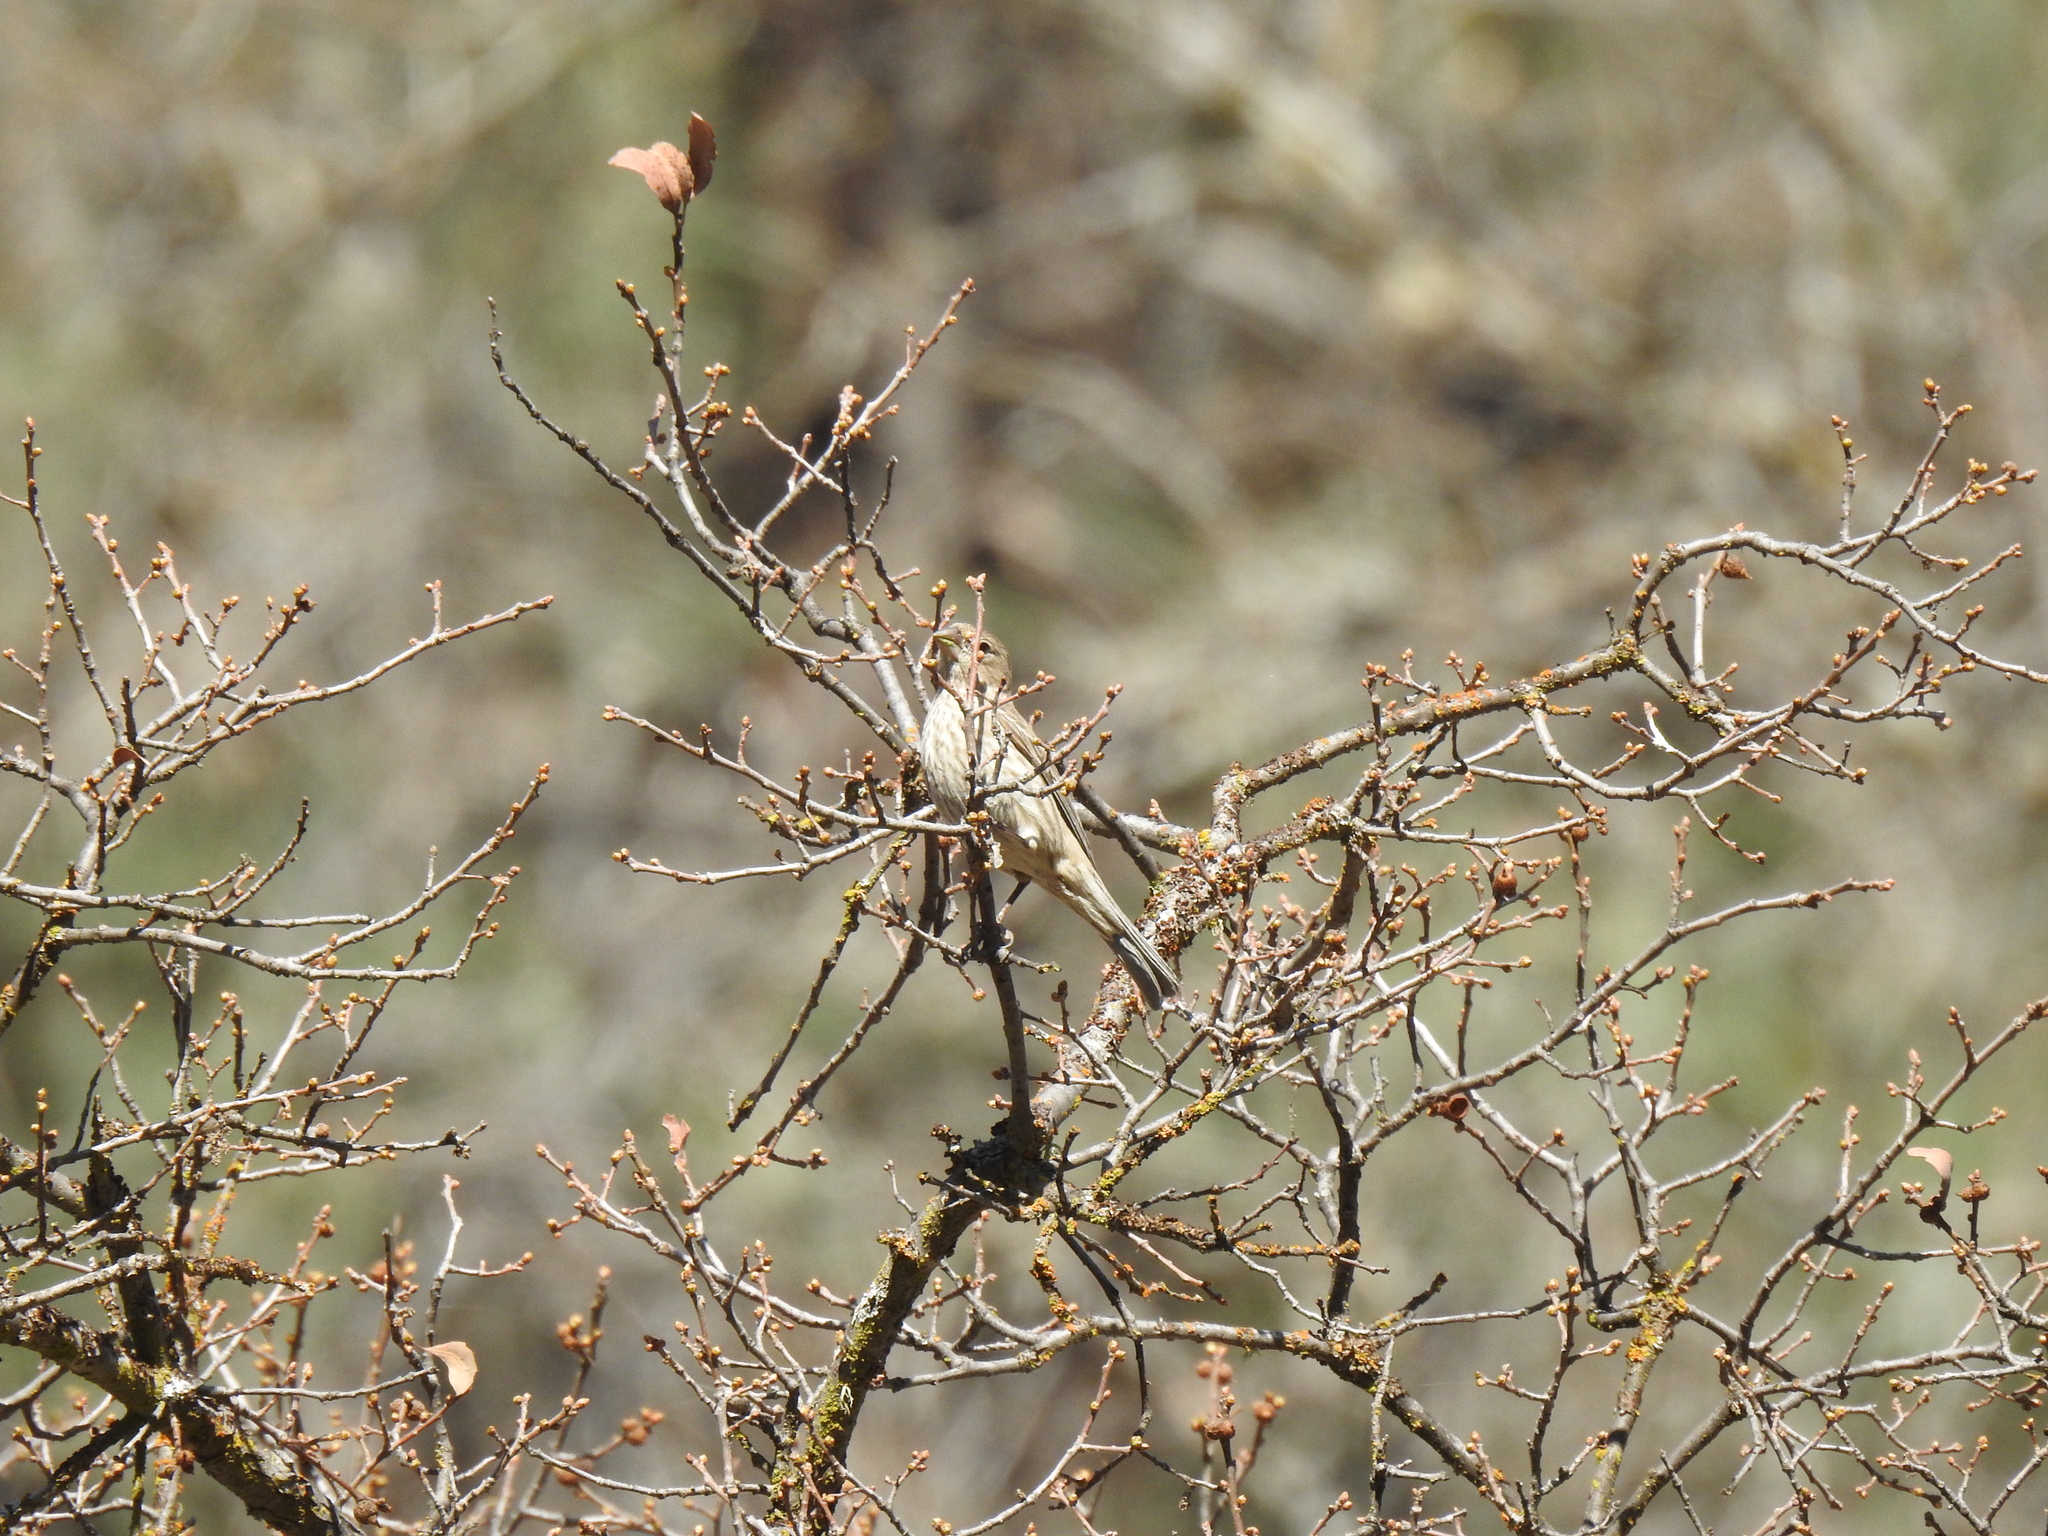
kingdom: Animalia
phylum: Chordata
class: Aves
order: Passeriformes
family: Fringillidae
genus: Haemorhous
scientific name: Haemorhous mexicanus
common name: House finch
